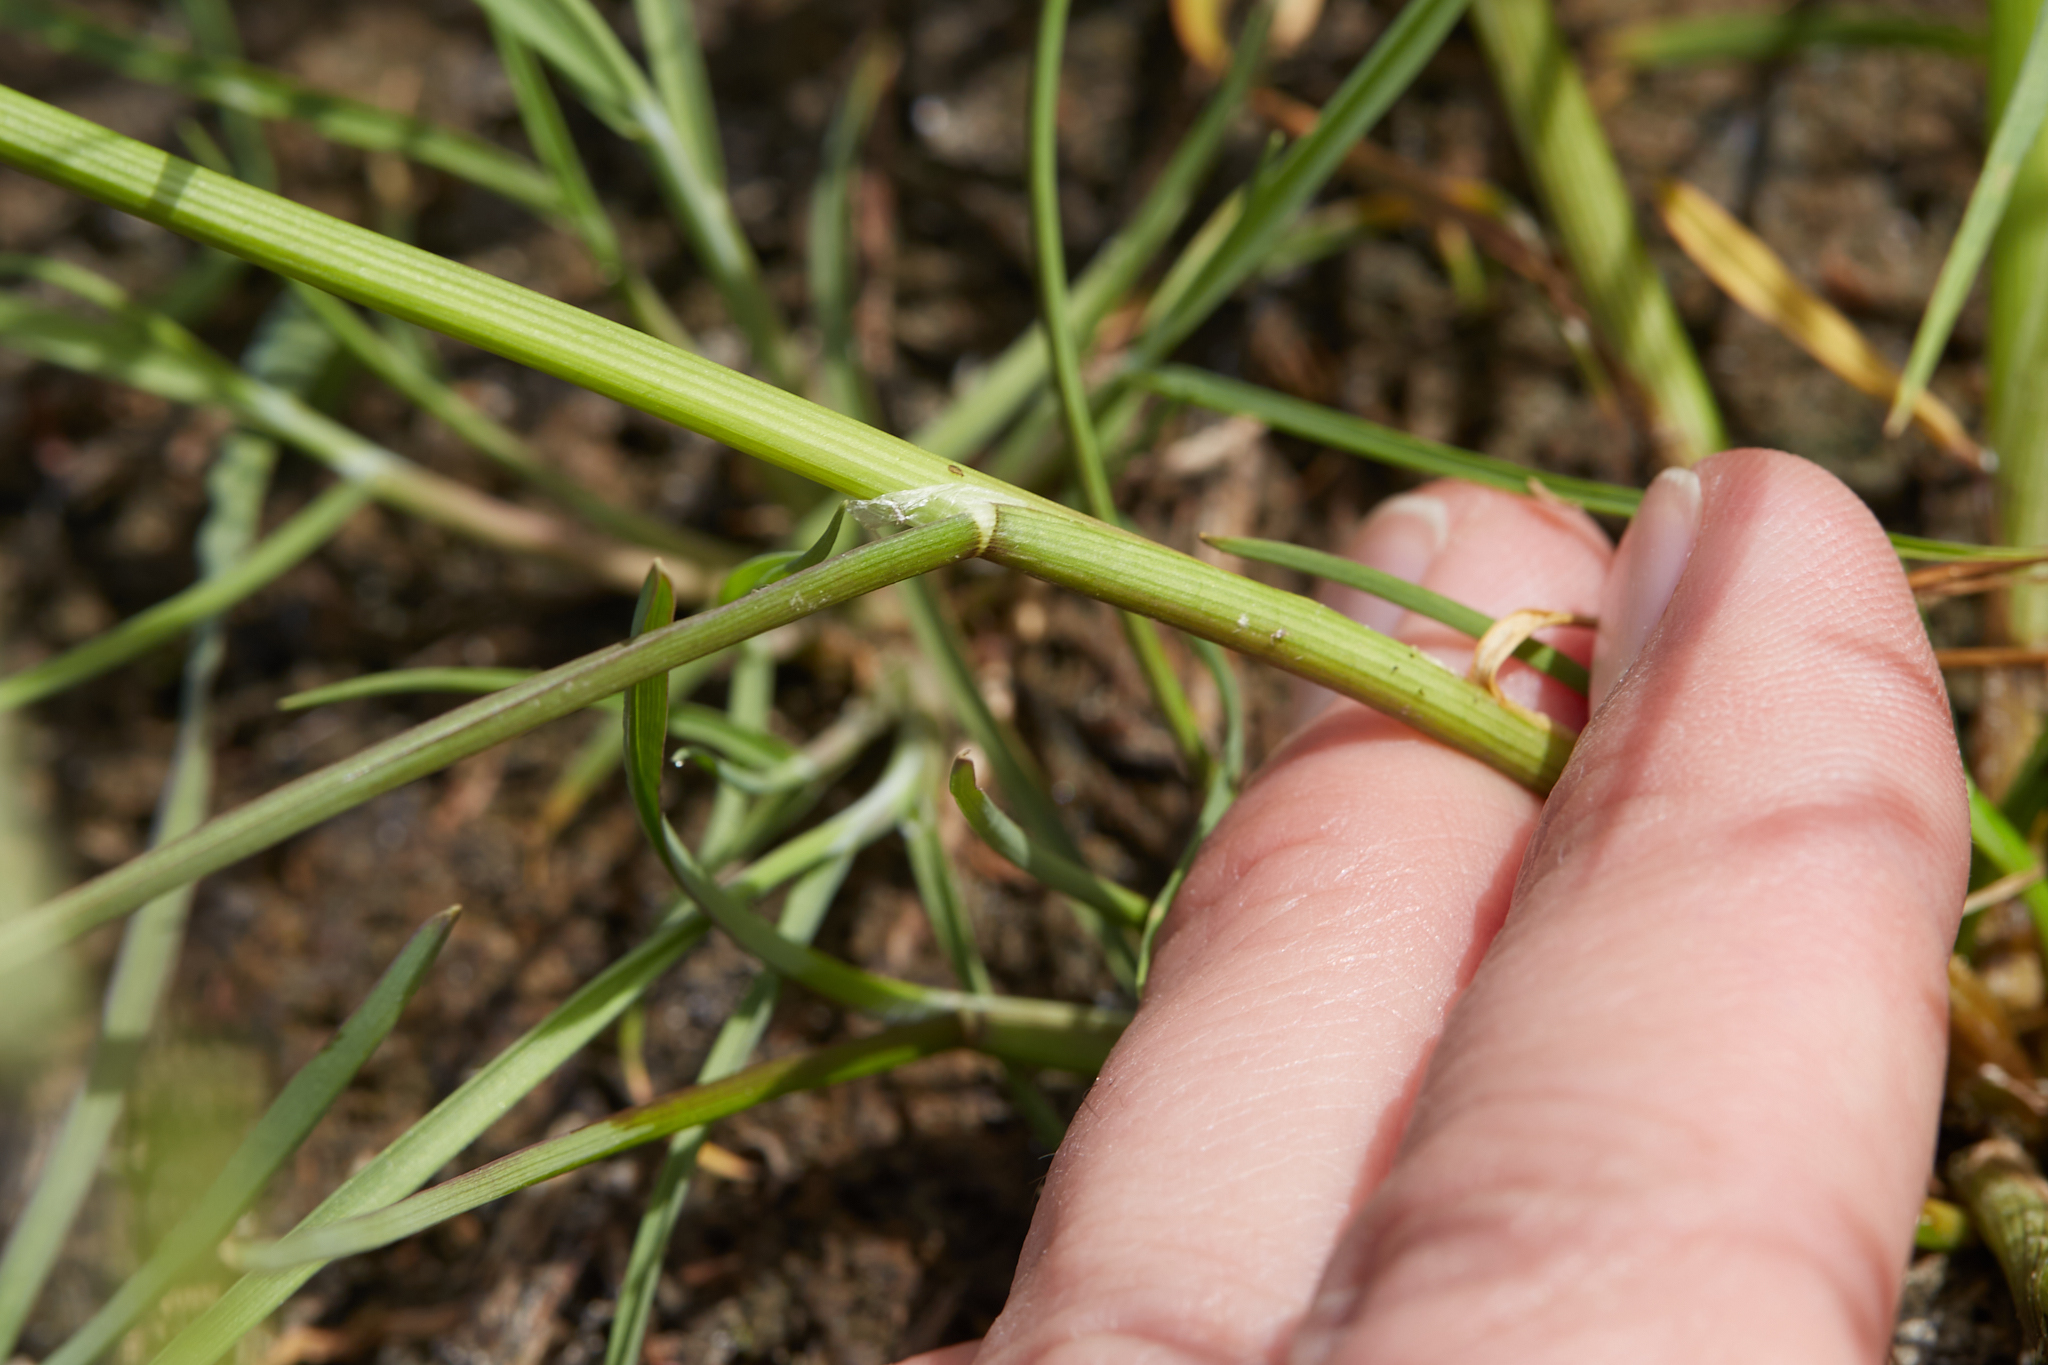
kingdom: Plantae
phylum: Tracheophyta
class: Liliopsida
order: Poales
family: Poaceae
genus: Pleuropogon
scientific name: Pleuropogon californicus
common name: California semaphore grass
